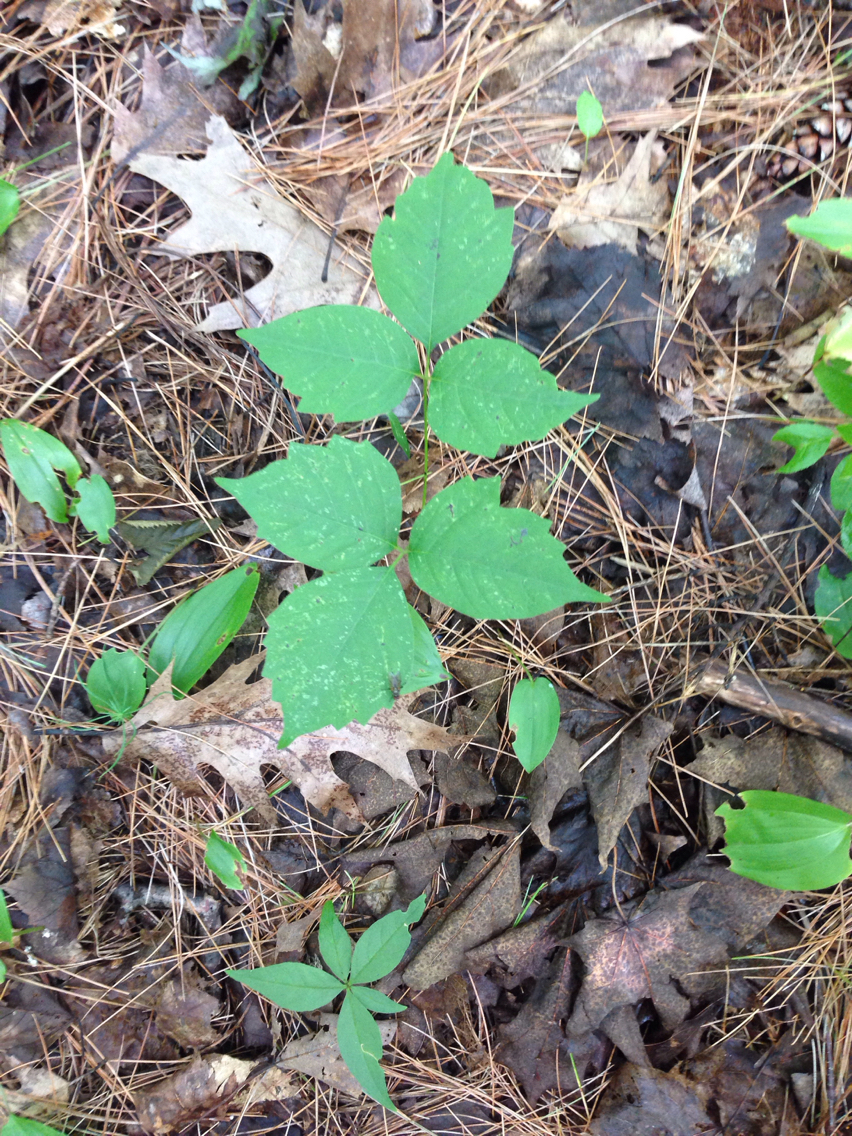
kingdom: Plantae
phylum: Tracheophyta
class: Magnoliopsida
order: Sapindales
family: Anacardiaceae
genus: Toxicodendron
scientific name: Toxicodendron radicans
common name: Poison ivy
